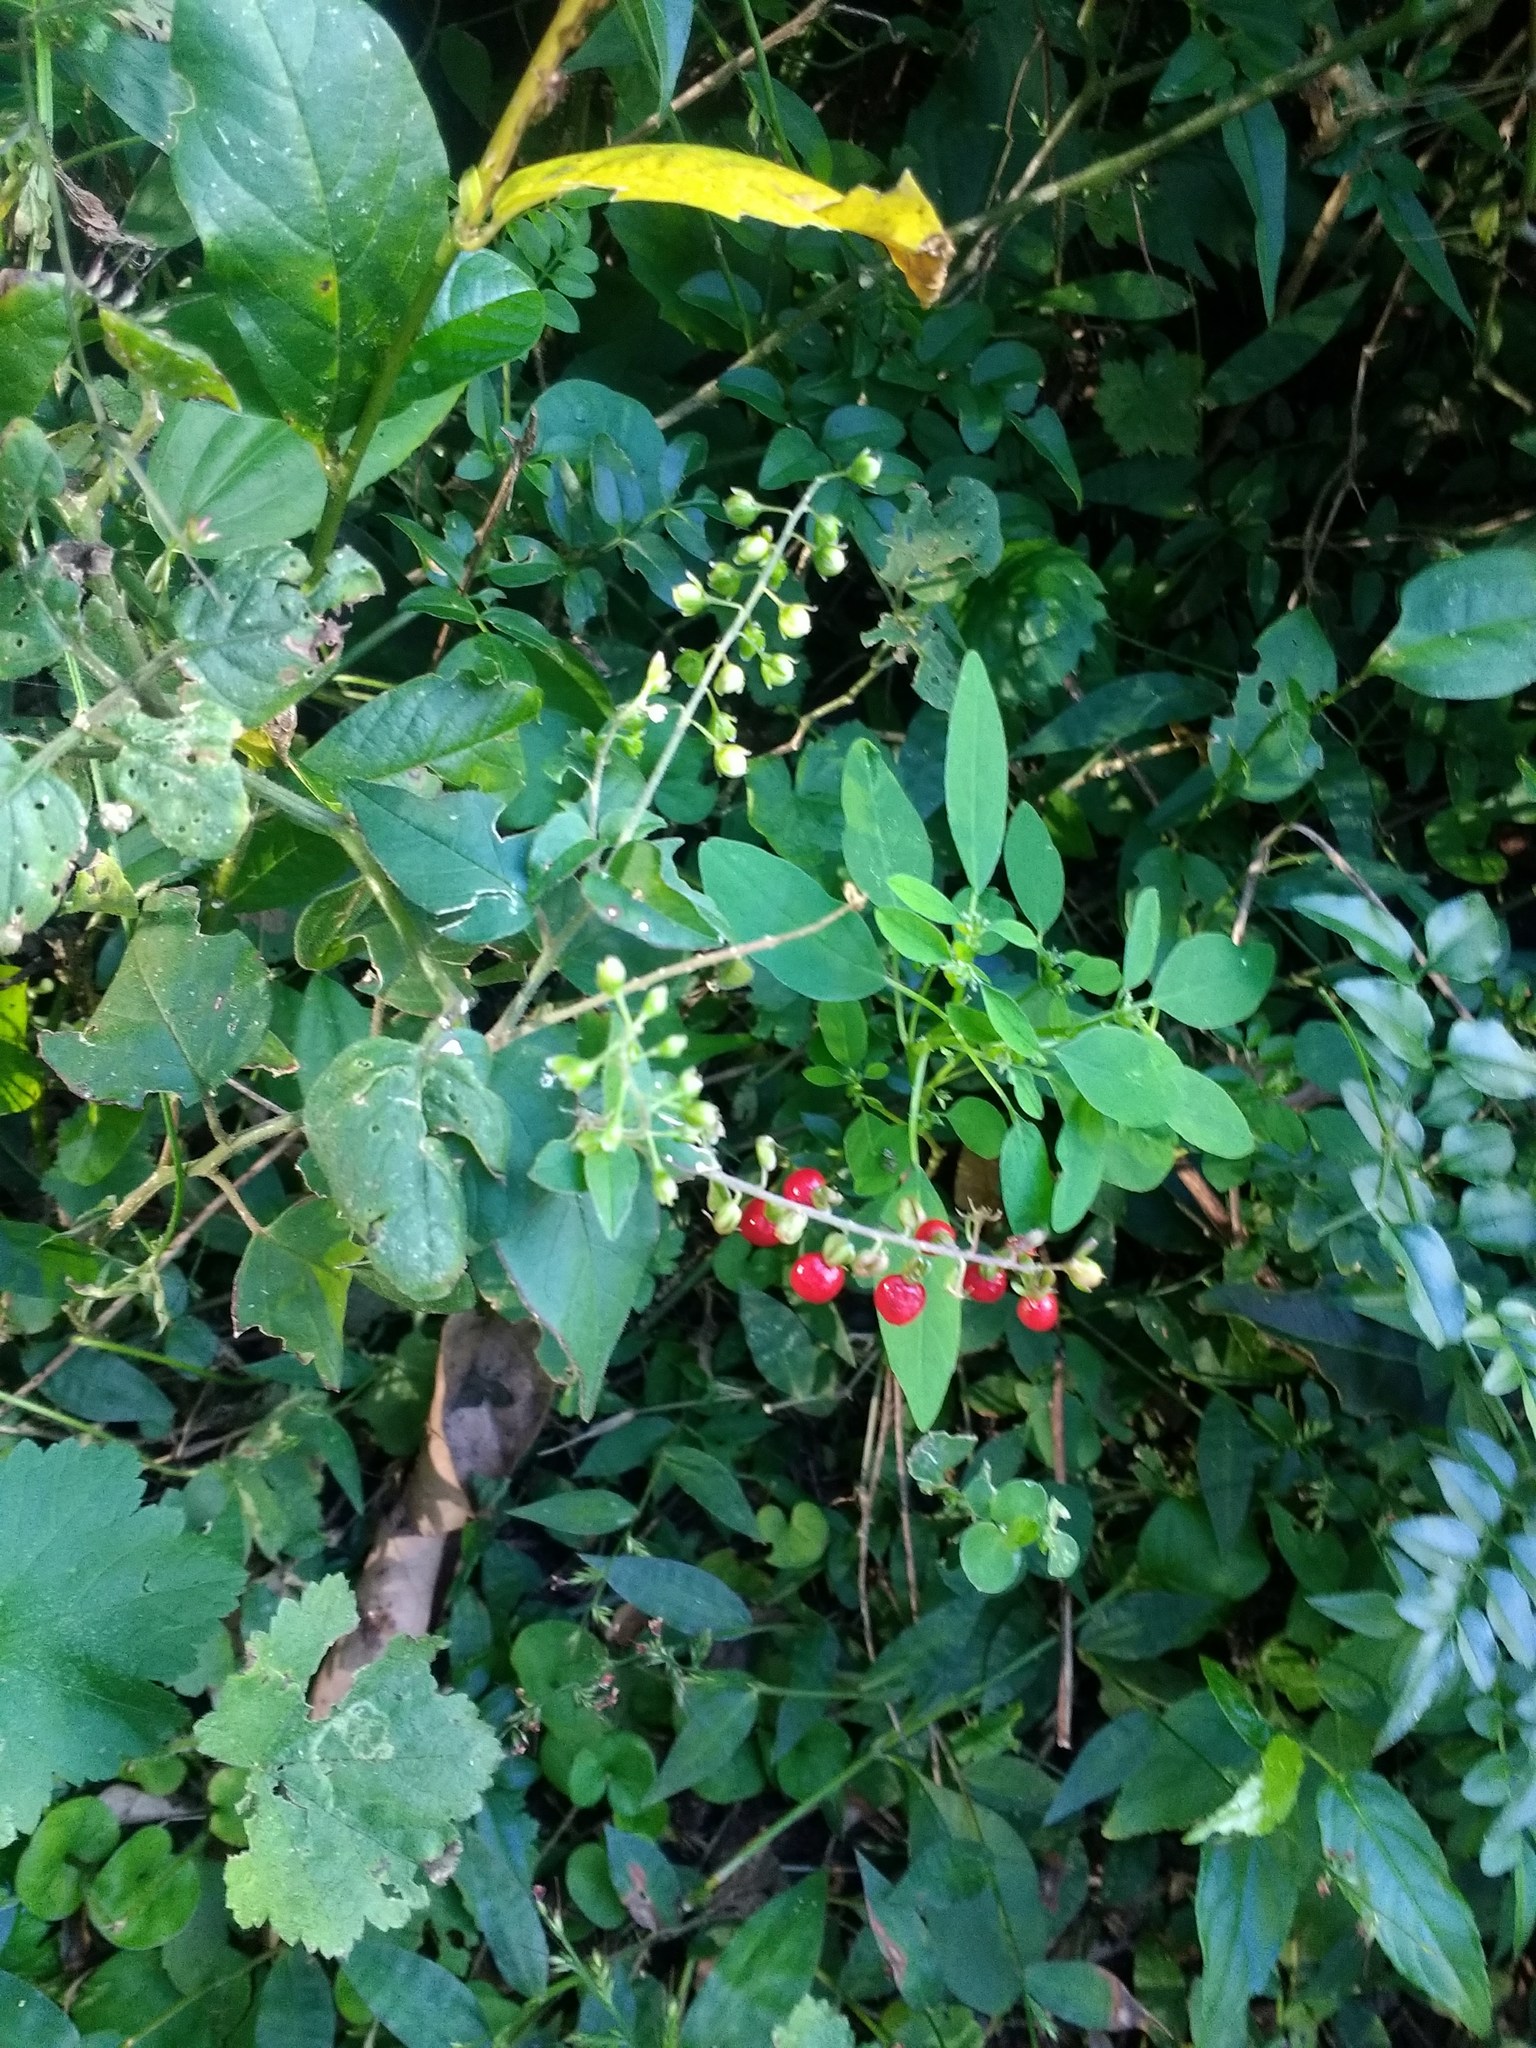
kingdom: Plantae
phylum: Tracheophyta
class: Magnoliopsida
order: Caryophyllales
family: Phytolaccaceae
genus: Rivina
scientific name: Rivina humilis
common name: Rougeplant
